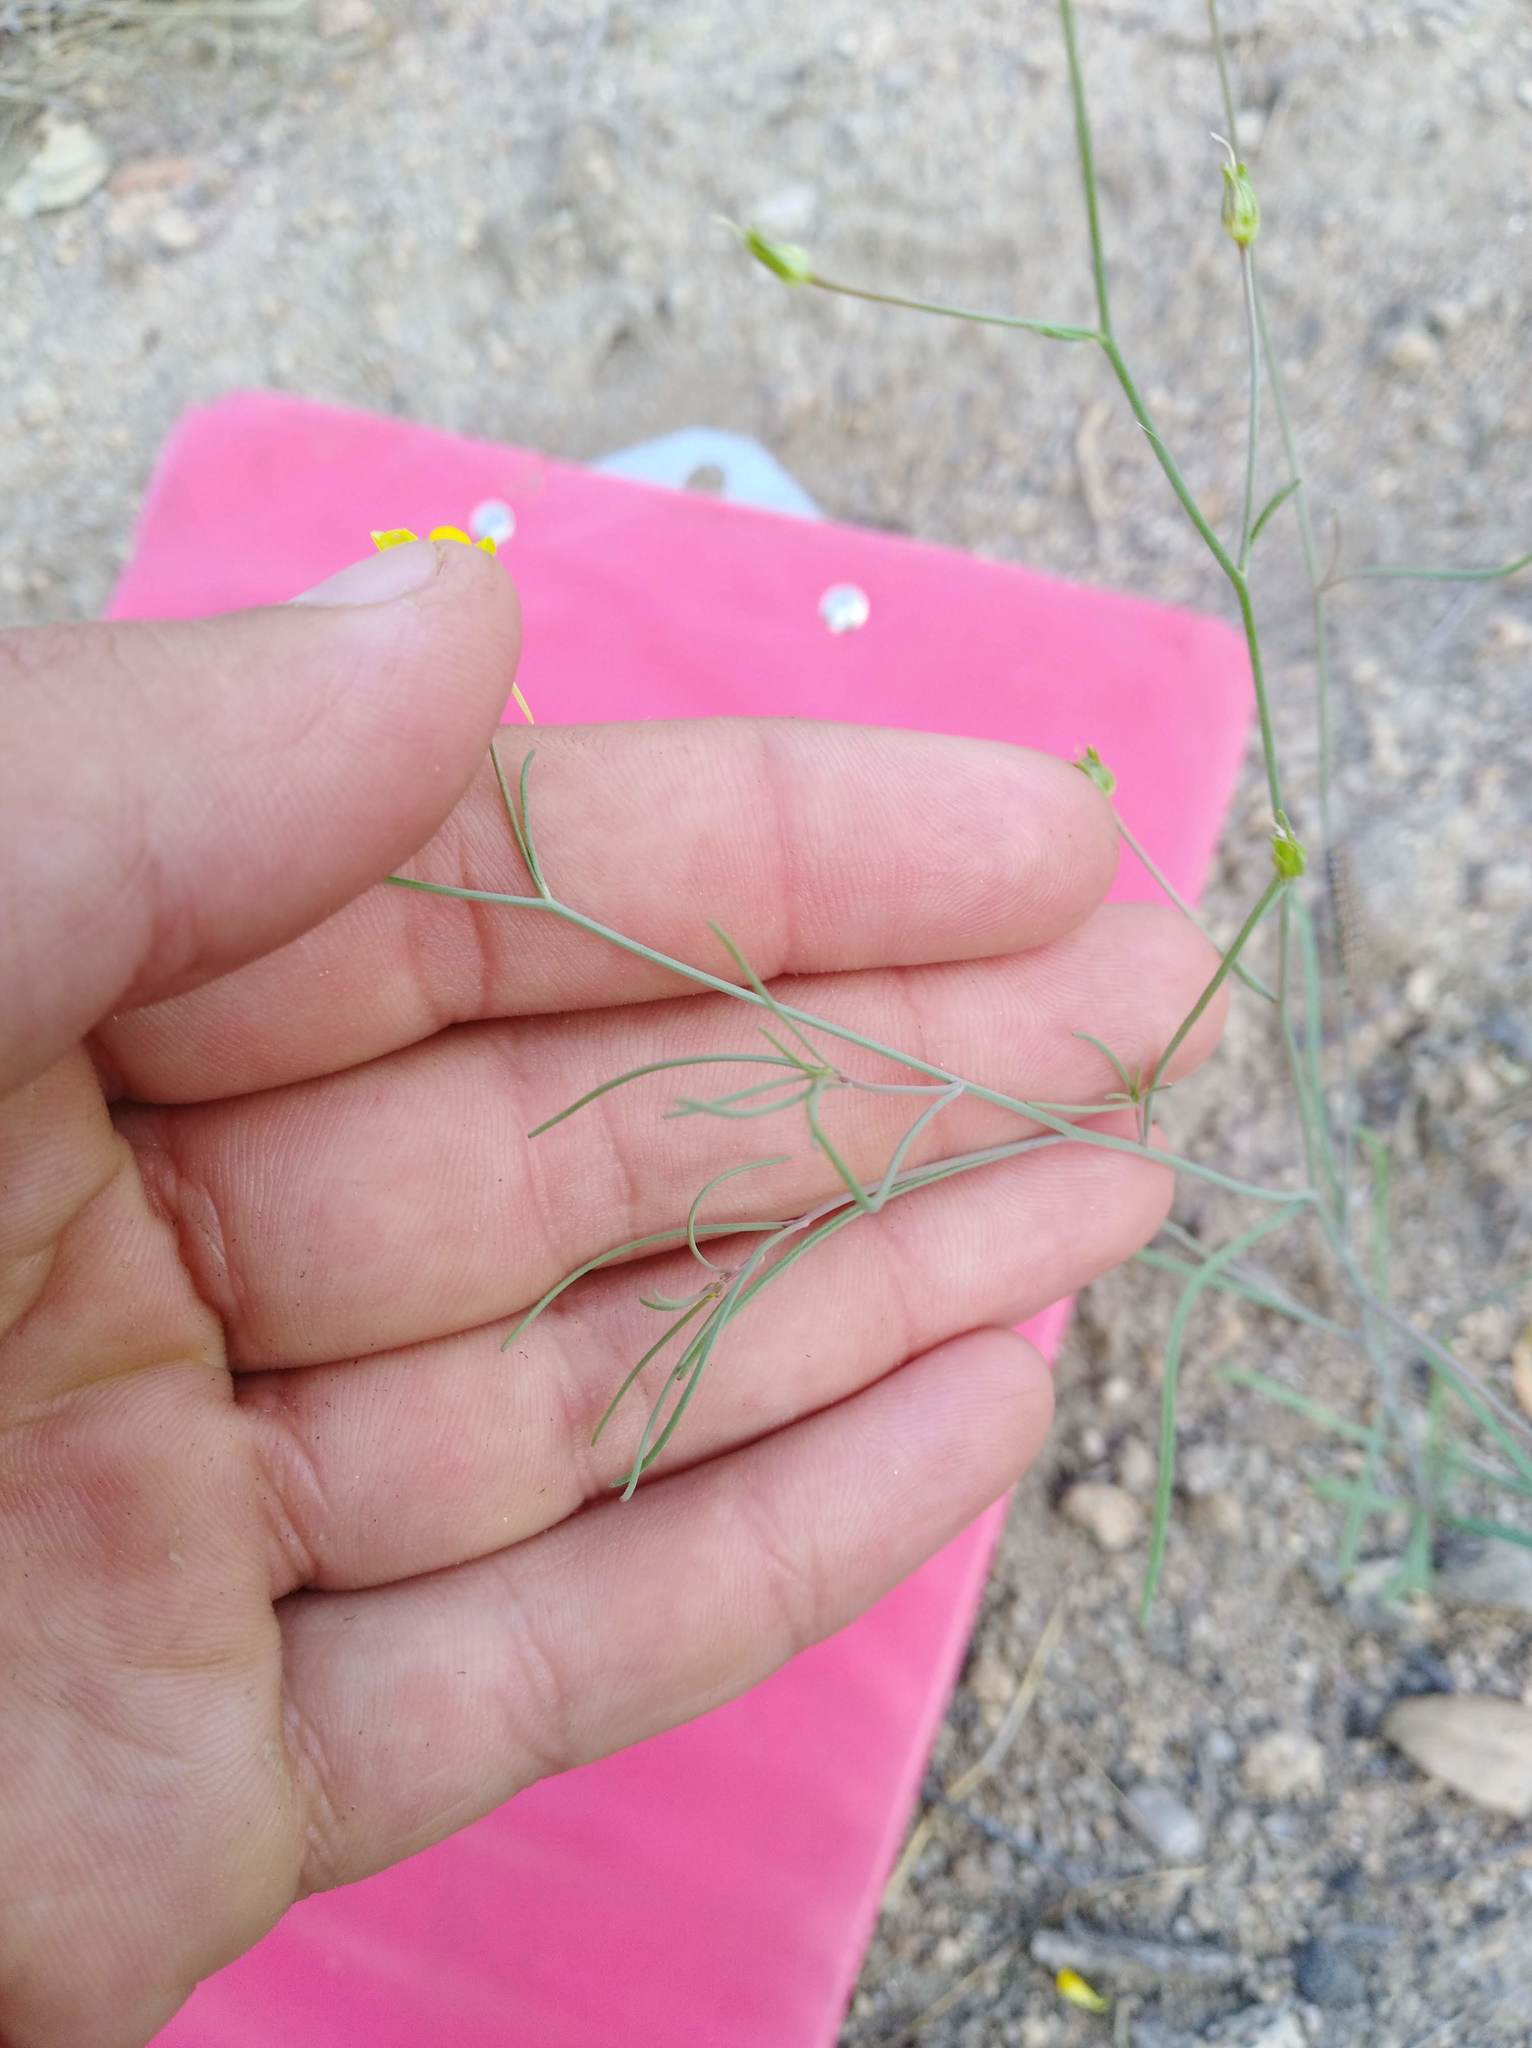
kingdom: Plantae
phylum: Tracheophyta
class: Magnoliopsida
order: Lamiales
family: Plantaginaceae
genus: Linaria
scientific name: Linaria spartea
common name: Ballast toadflax
